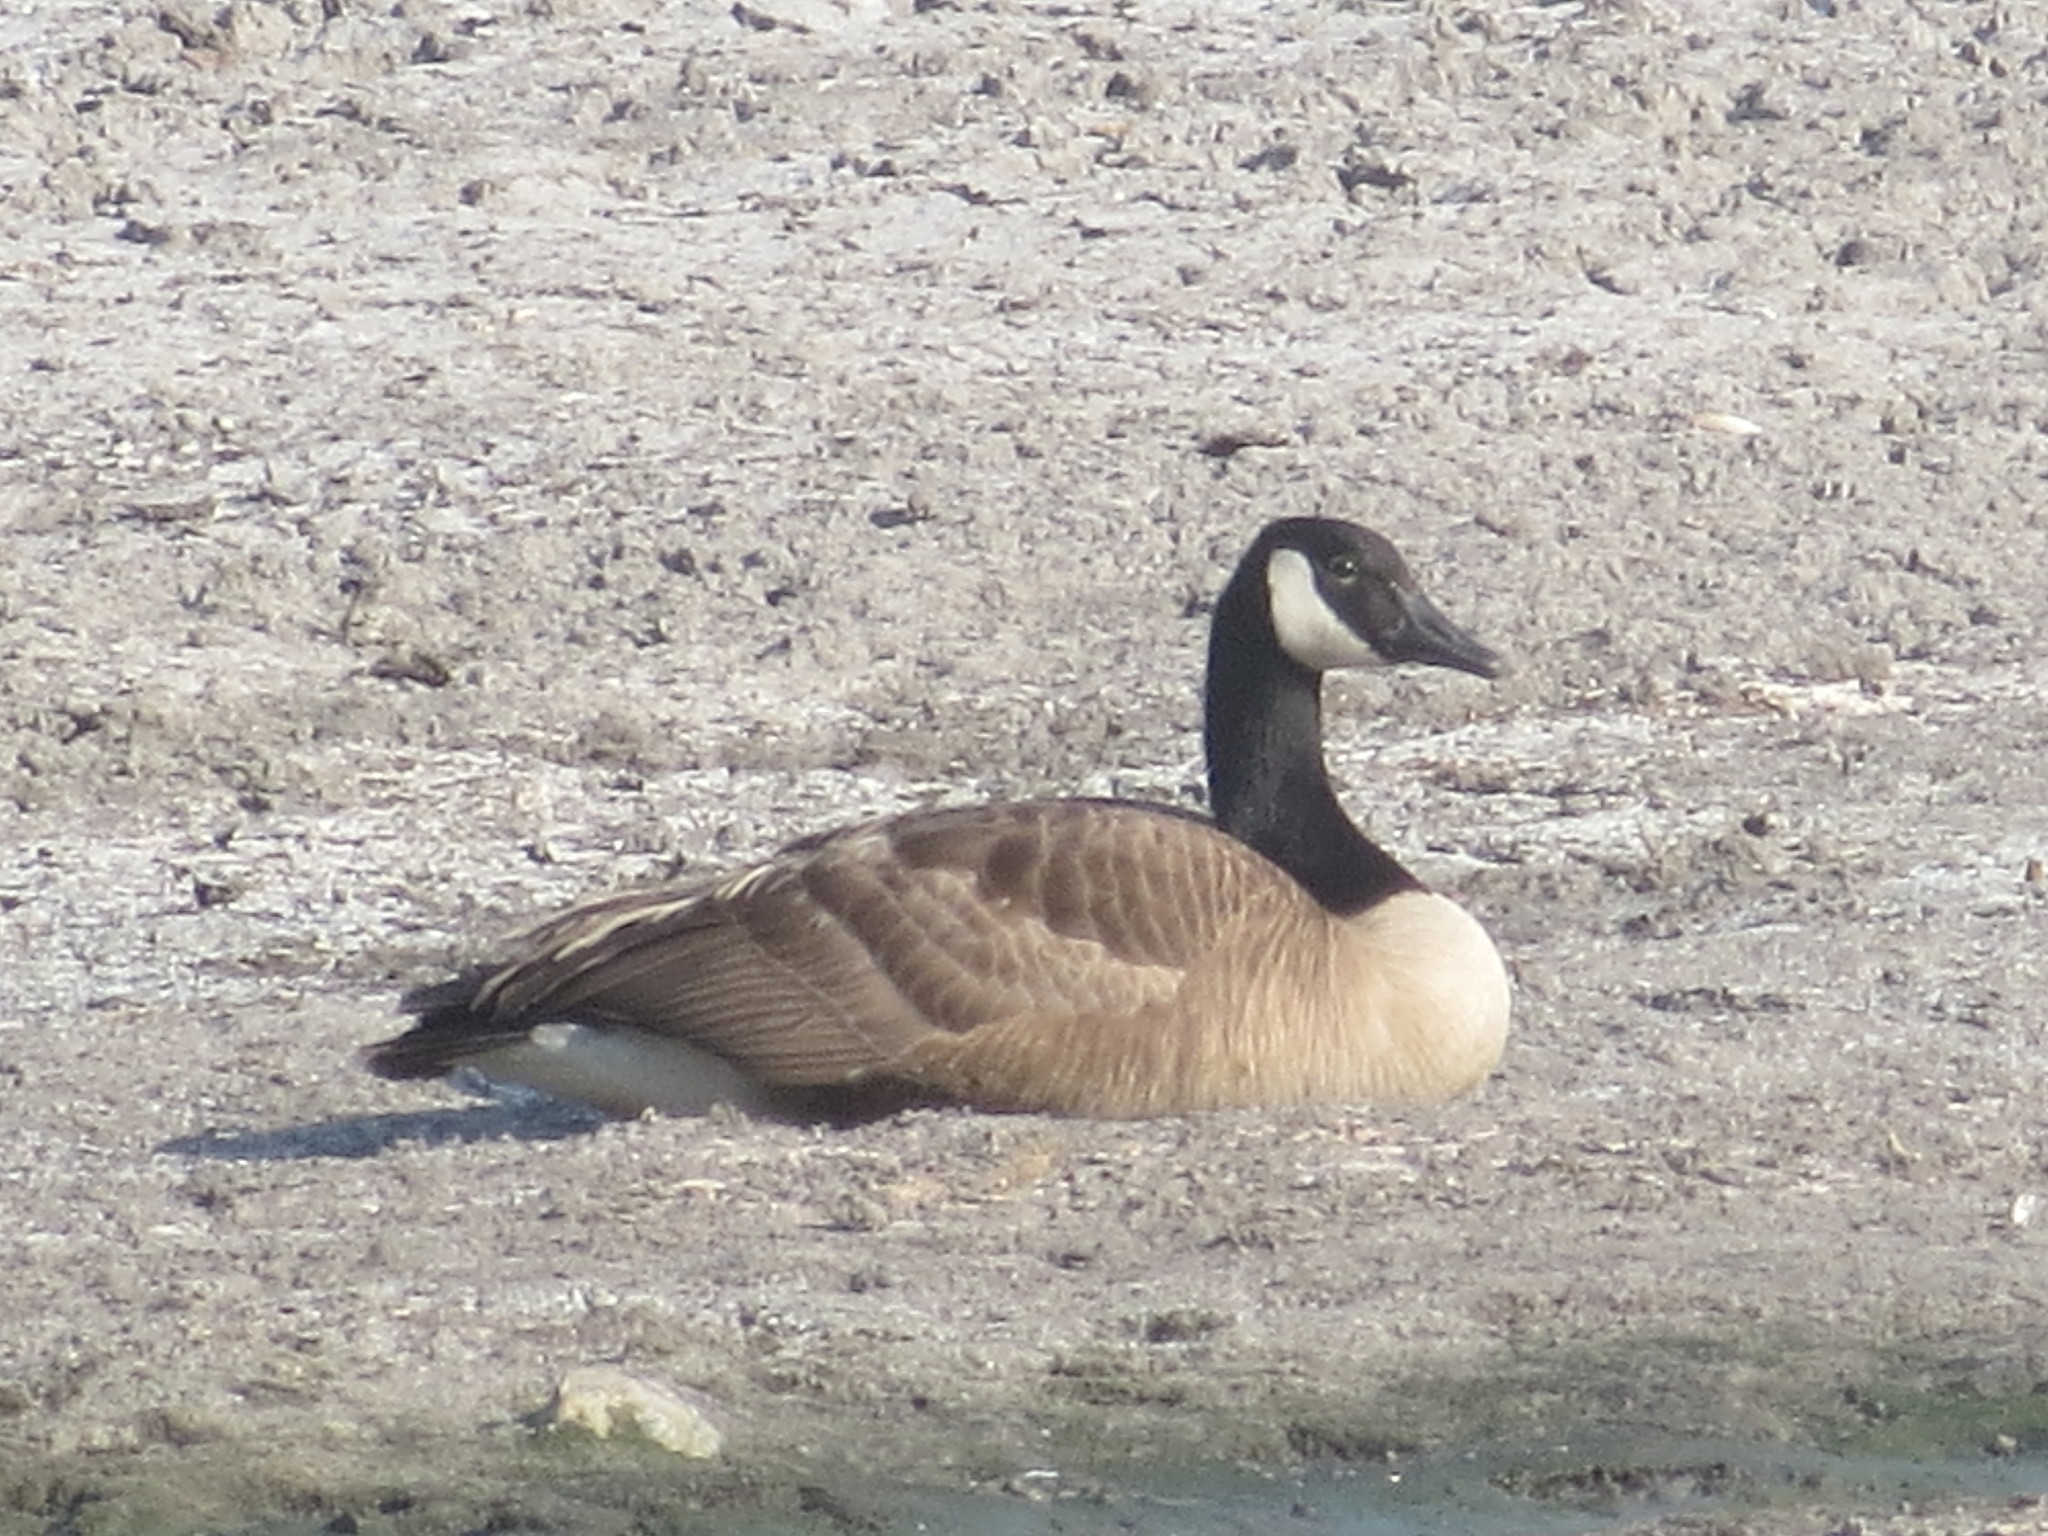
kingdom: Animalia
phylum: Chordata
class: Aves
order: Anseriformes
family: Anatidae
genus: Branta
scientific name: Branta canadensis
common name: Canada goose
